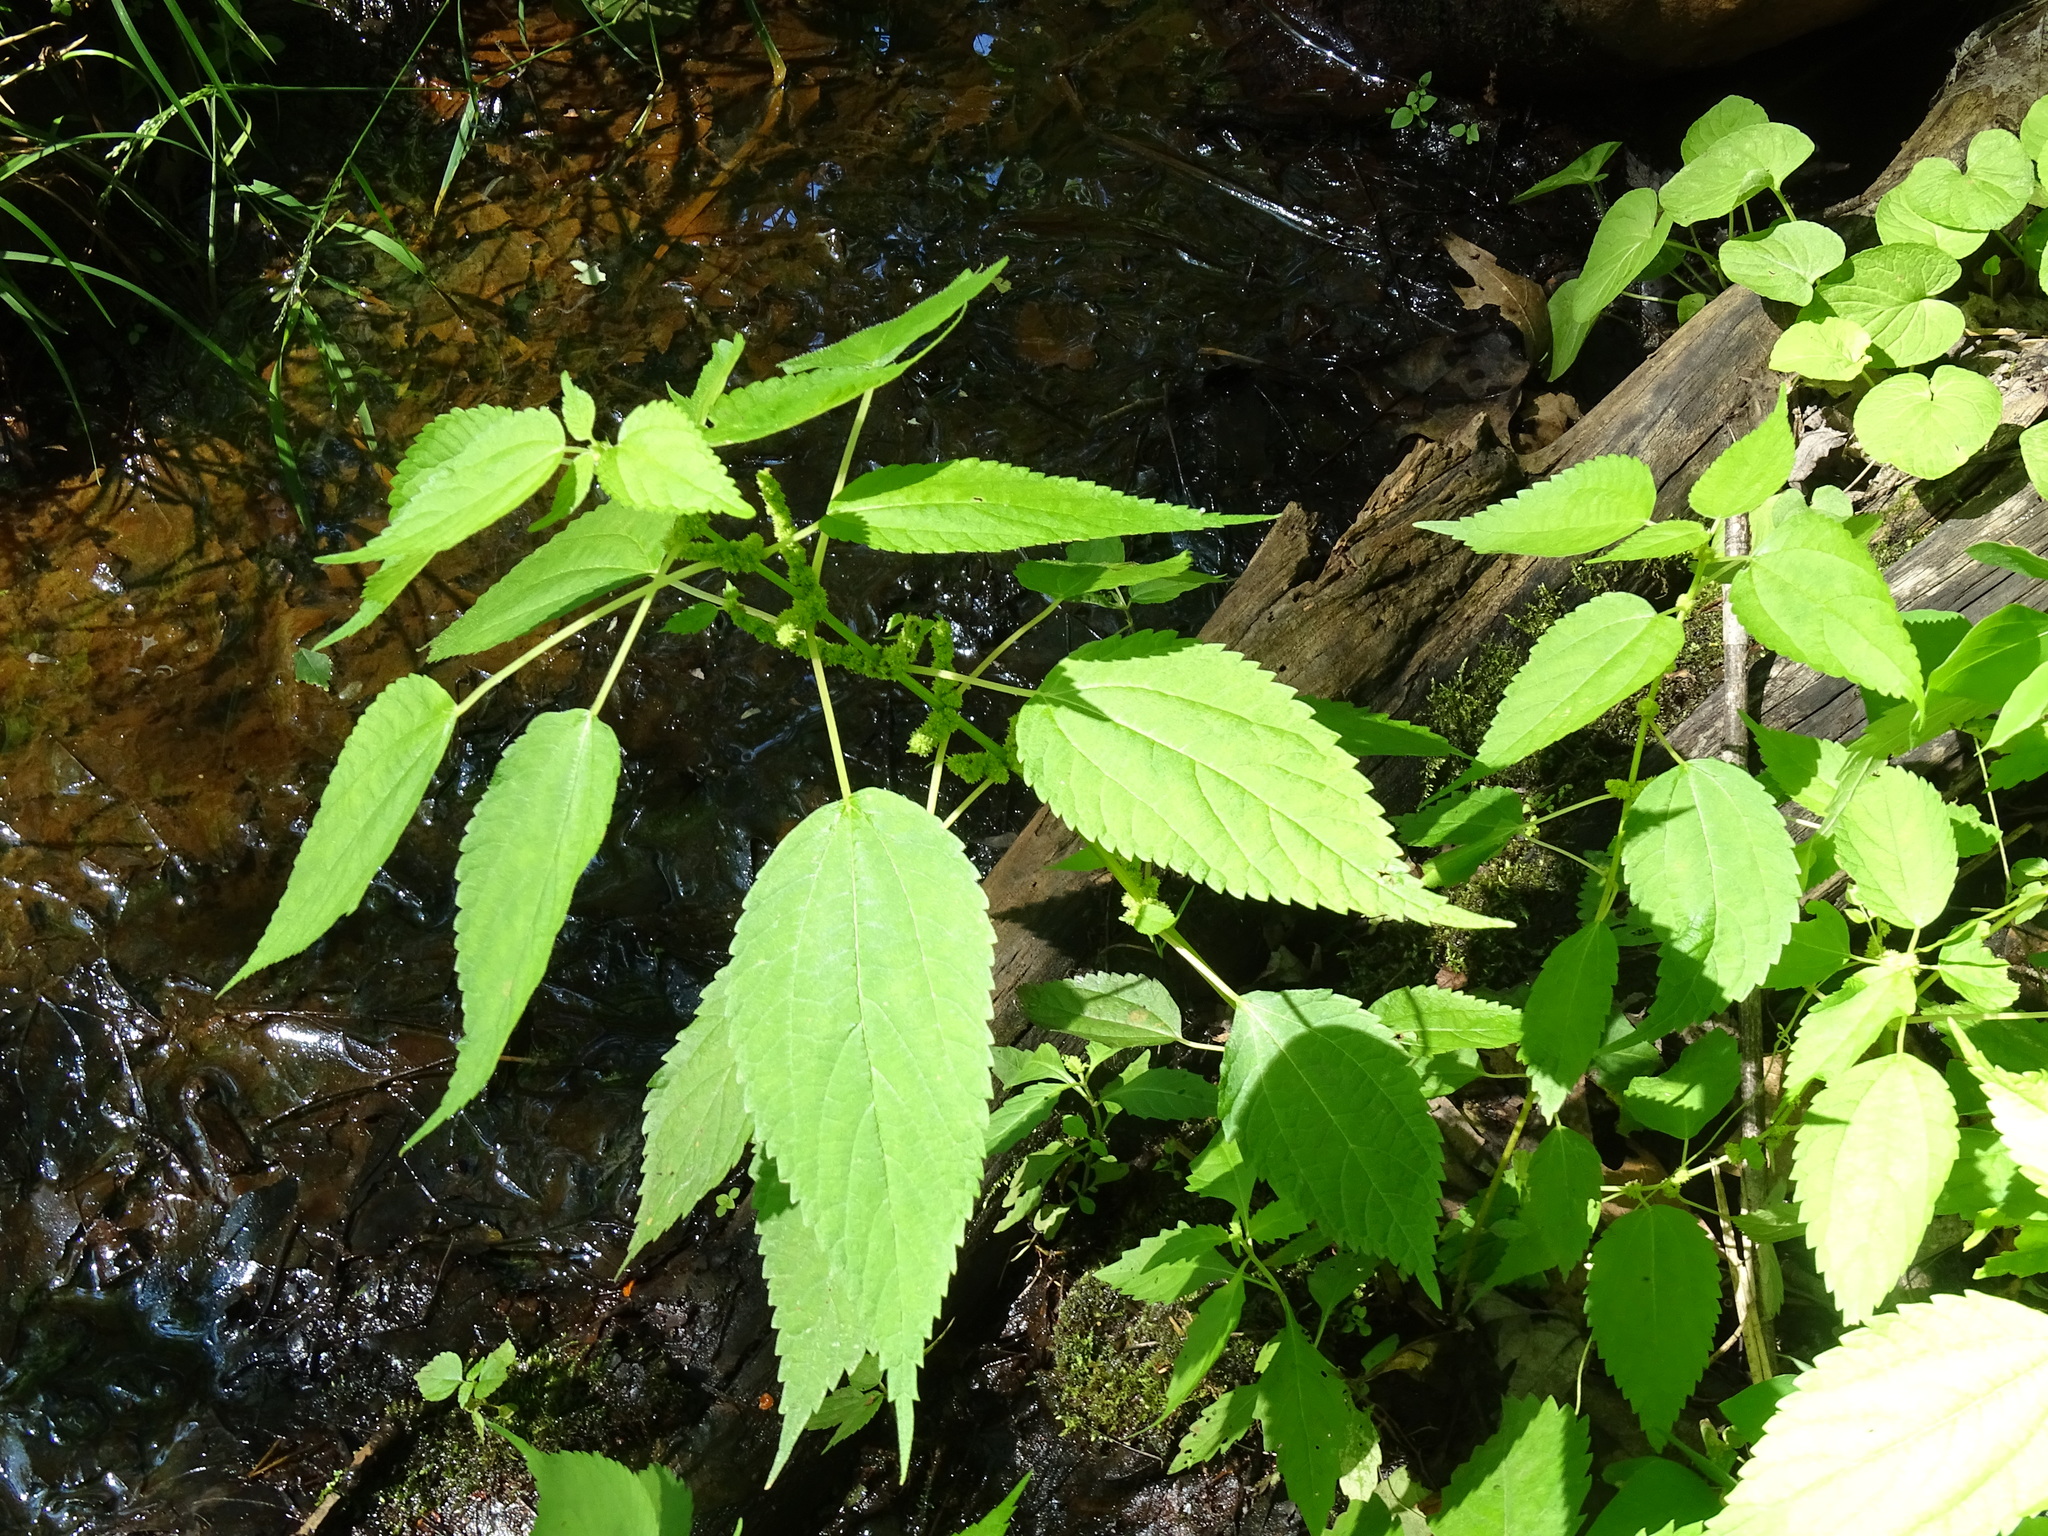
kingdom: Plantae
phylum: Tracheophyta
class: Magnoliopsida
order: Rosales
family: Urticaceae
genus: Boehmeria
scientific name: Boehmeria cylindrica
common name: Bog-hemp
